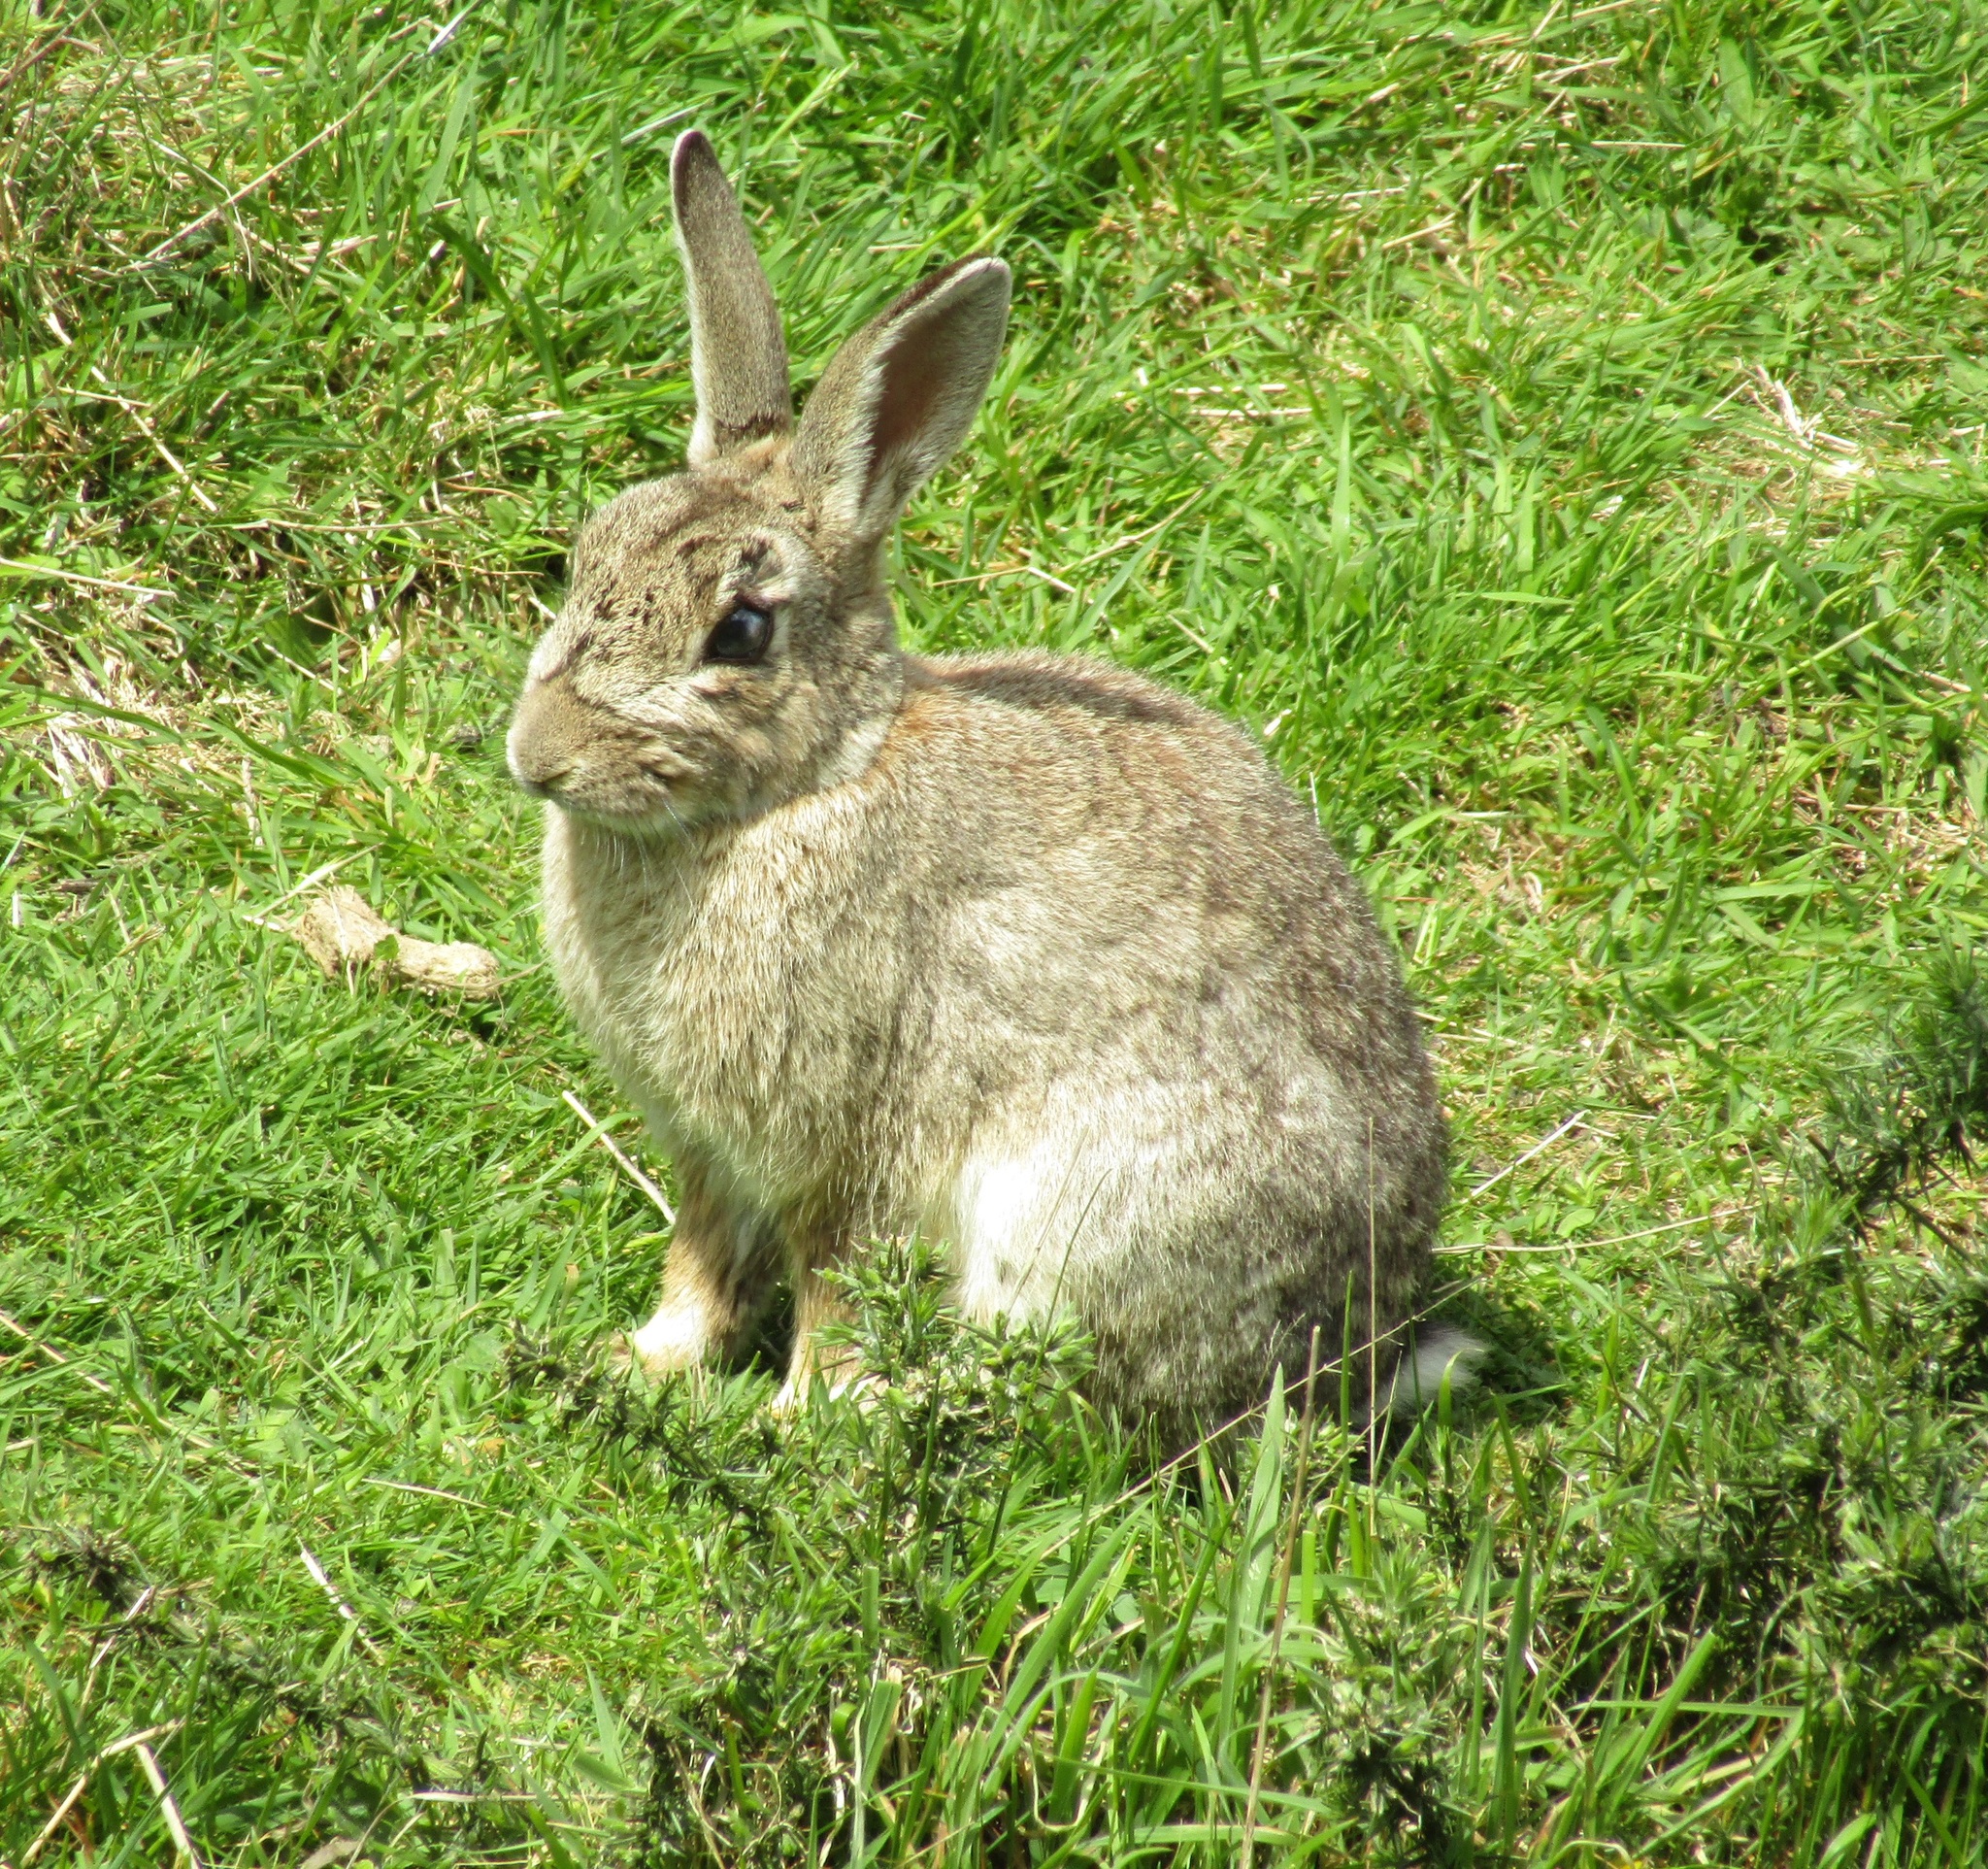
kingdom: Animalia
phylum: Chordata
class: Mammalia
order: Lagomorpha
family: Leporidae
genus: Oryctolagus
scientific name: Oryctolagus cuniculus
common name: European rabbit
